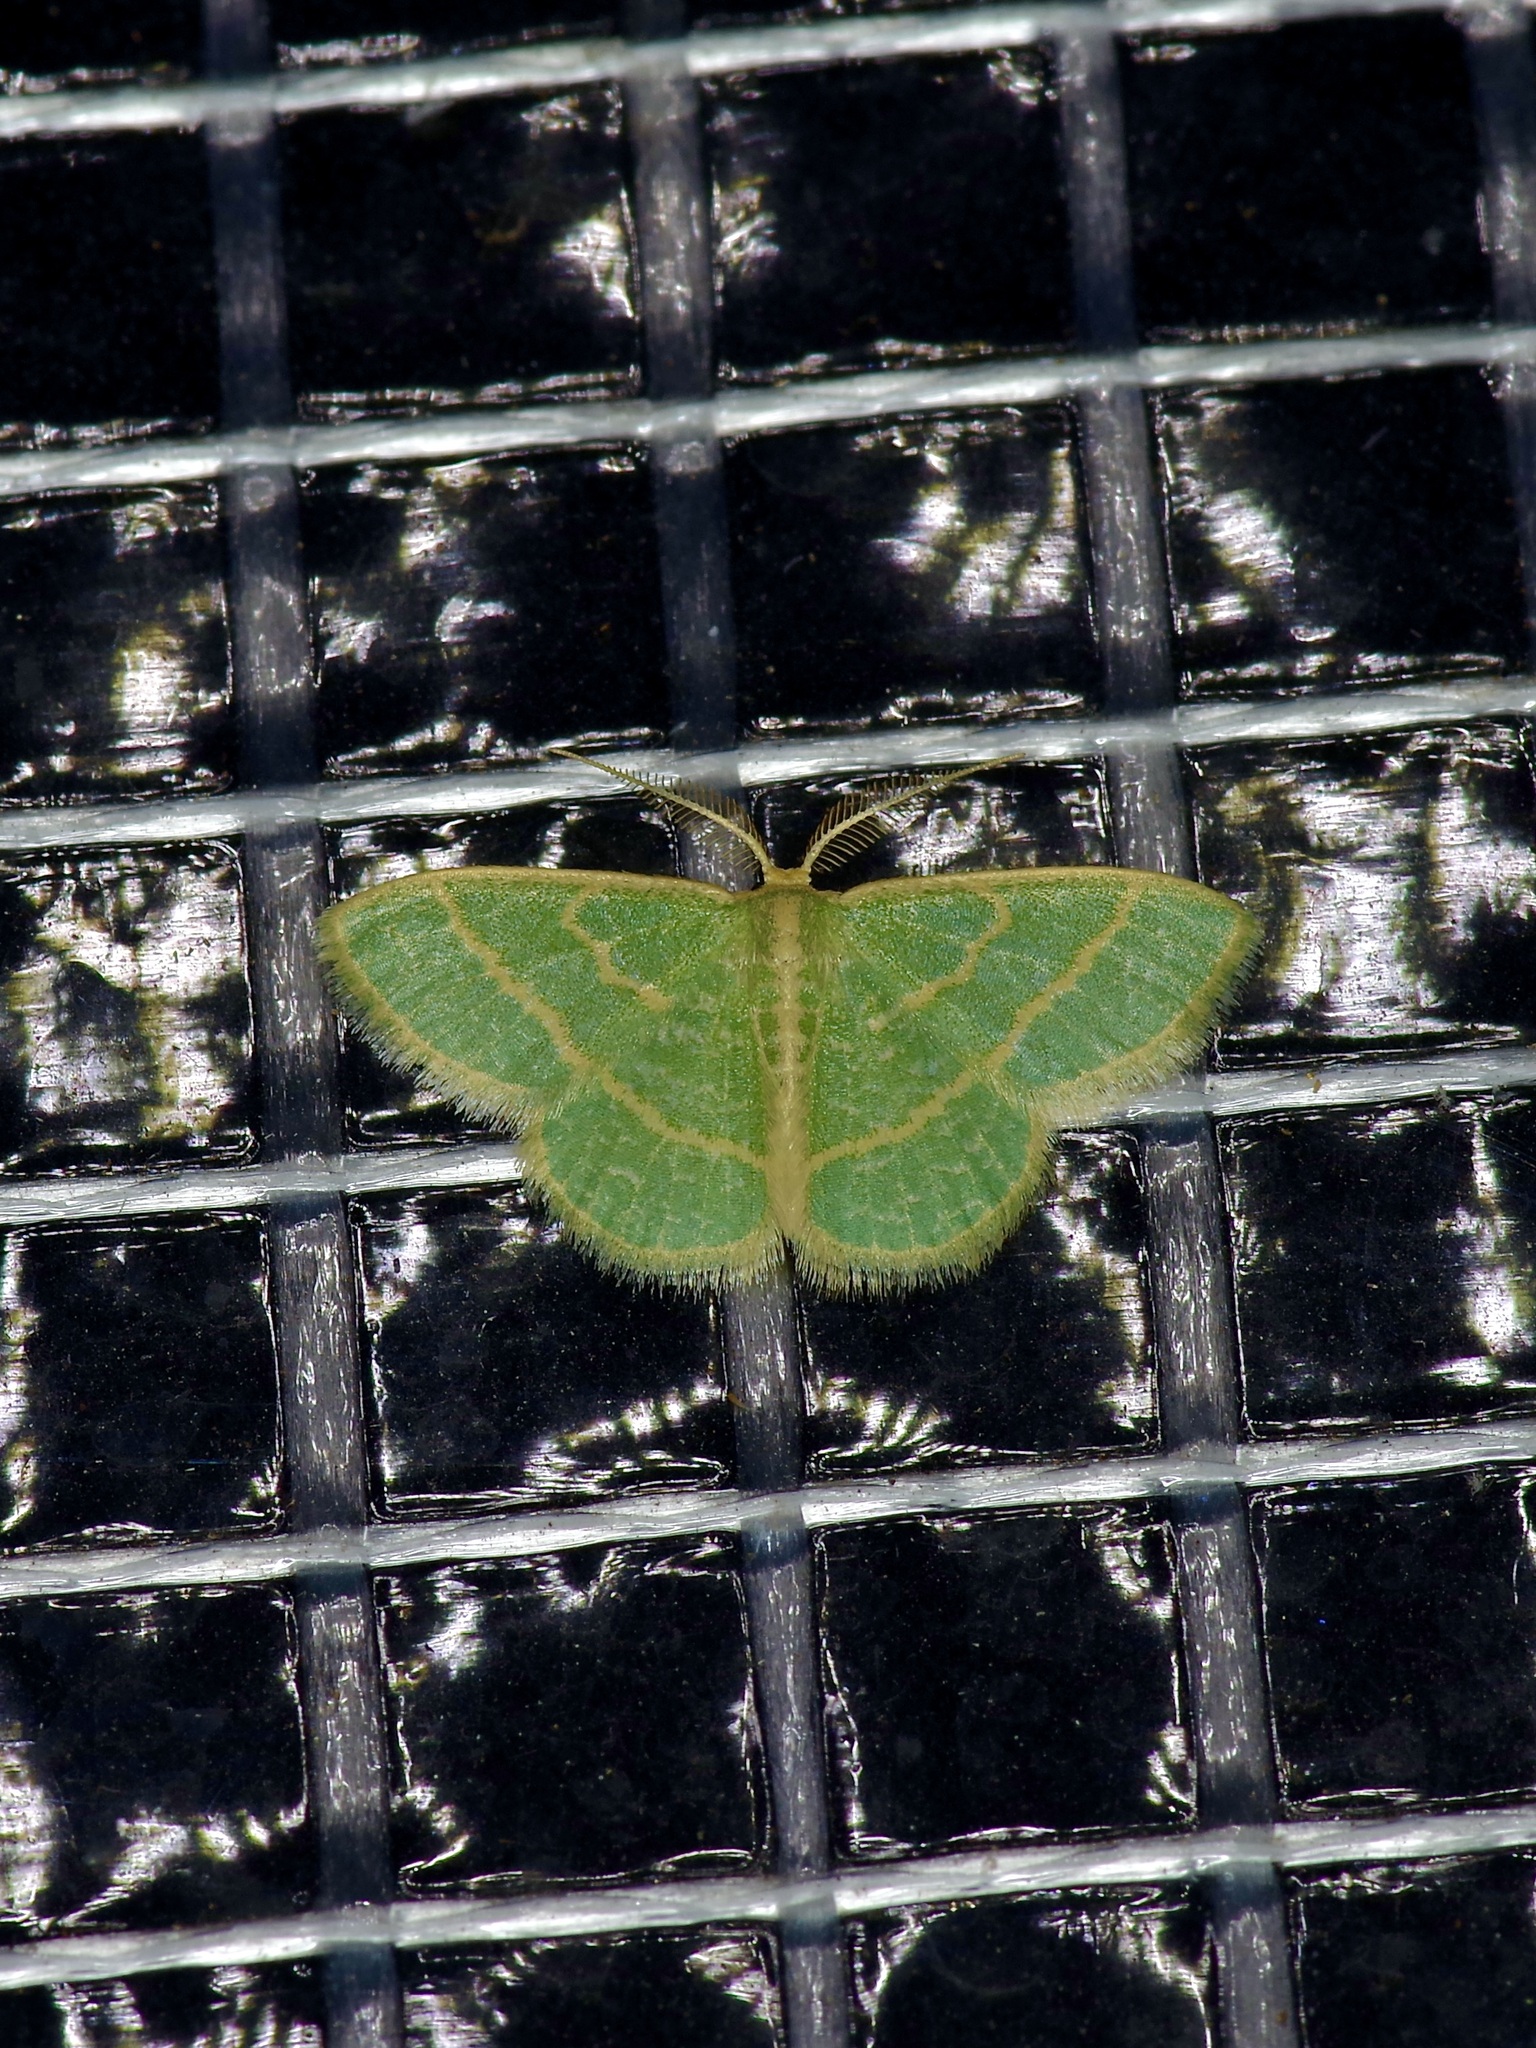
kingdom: Animalia
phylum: Arthropoda
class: Insecta
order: Lepidoptera
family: Geometridae
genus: Chlorochlamys
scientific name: Chlorochlamys chloroleucaria
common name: Blackberry looper
